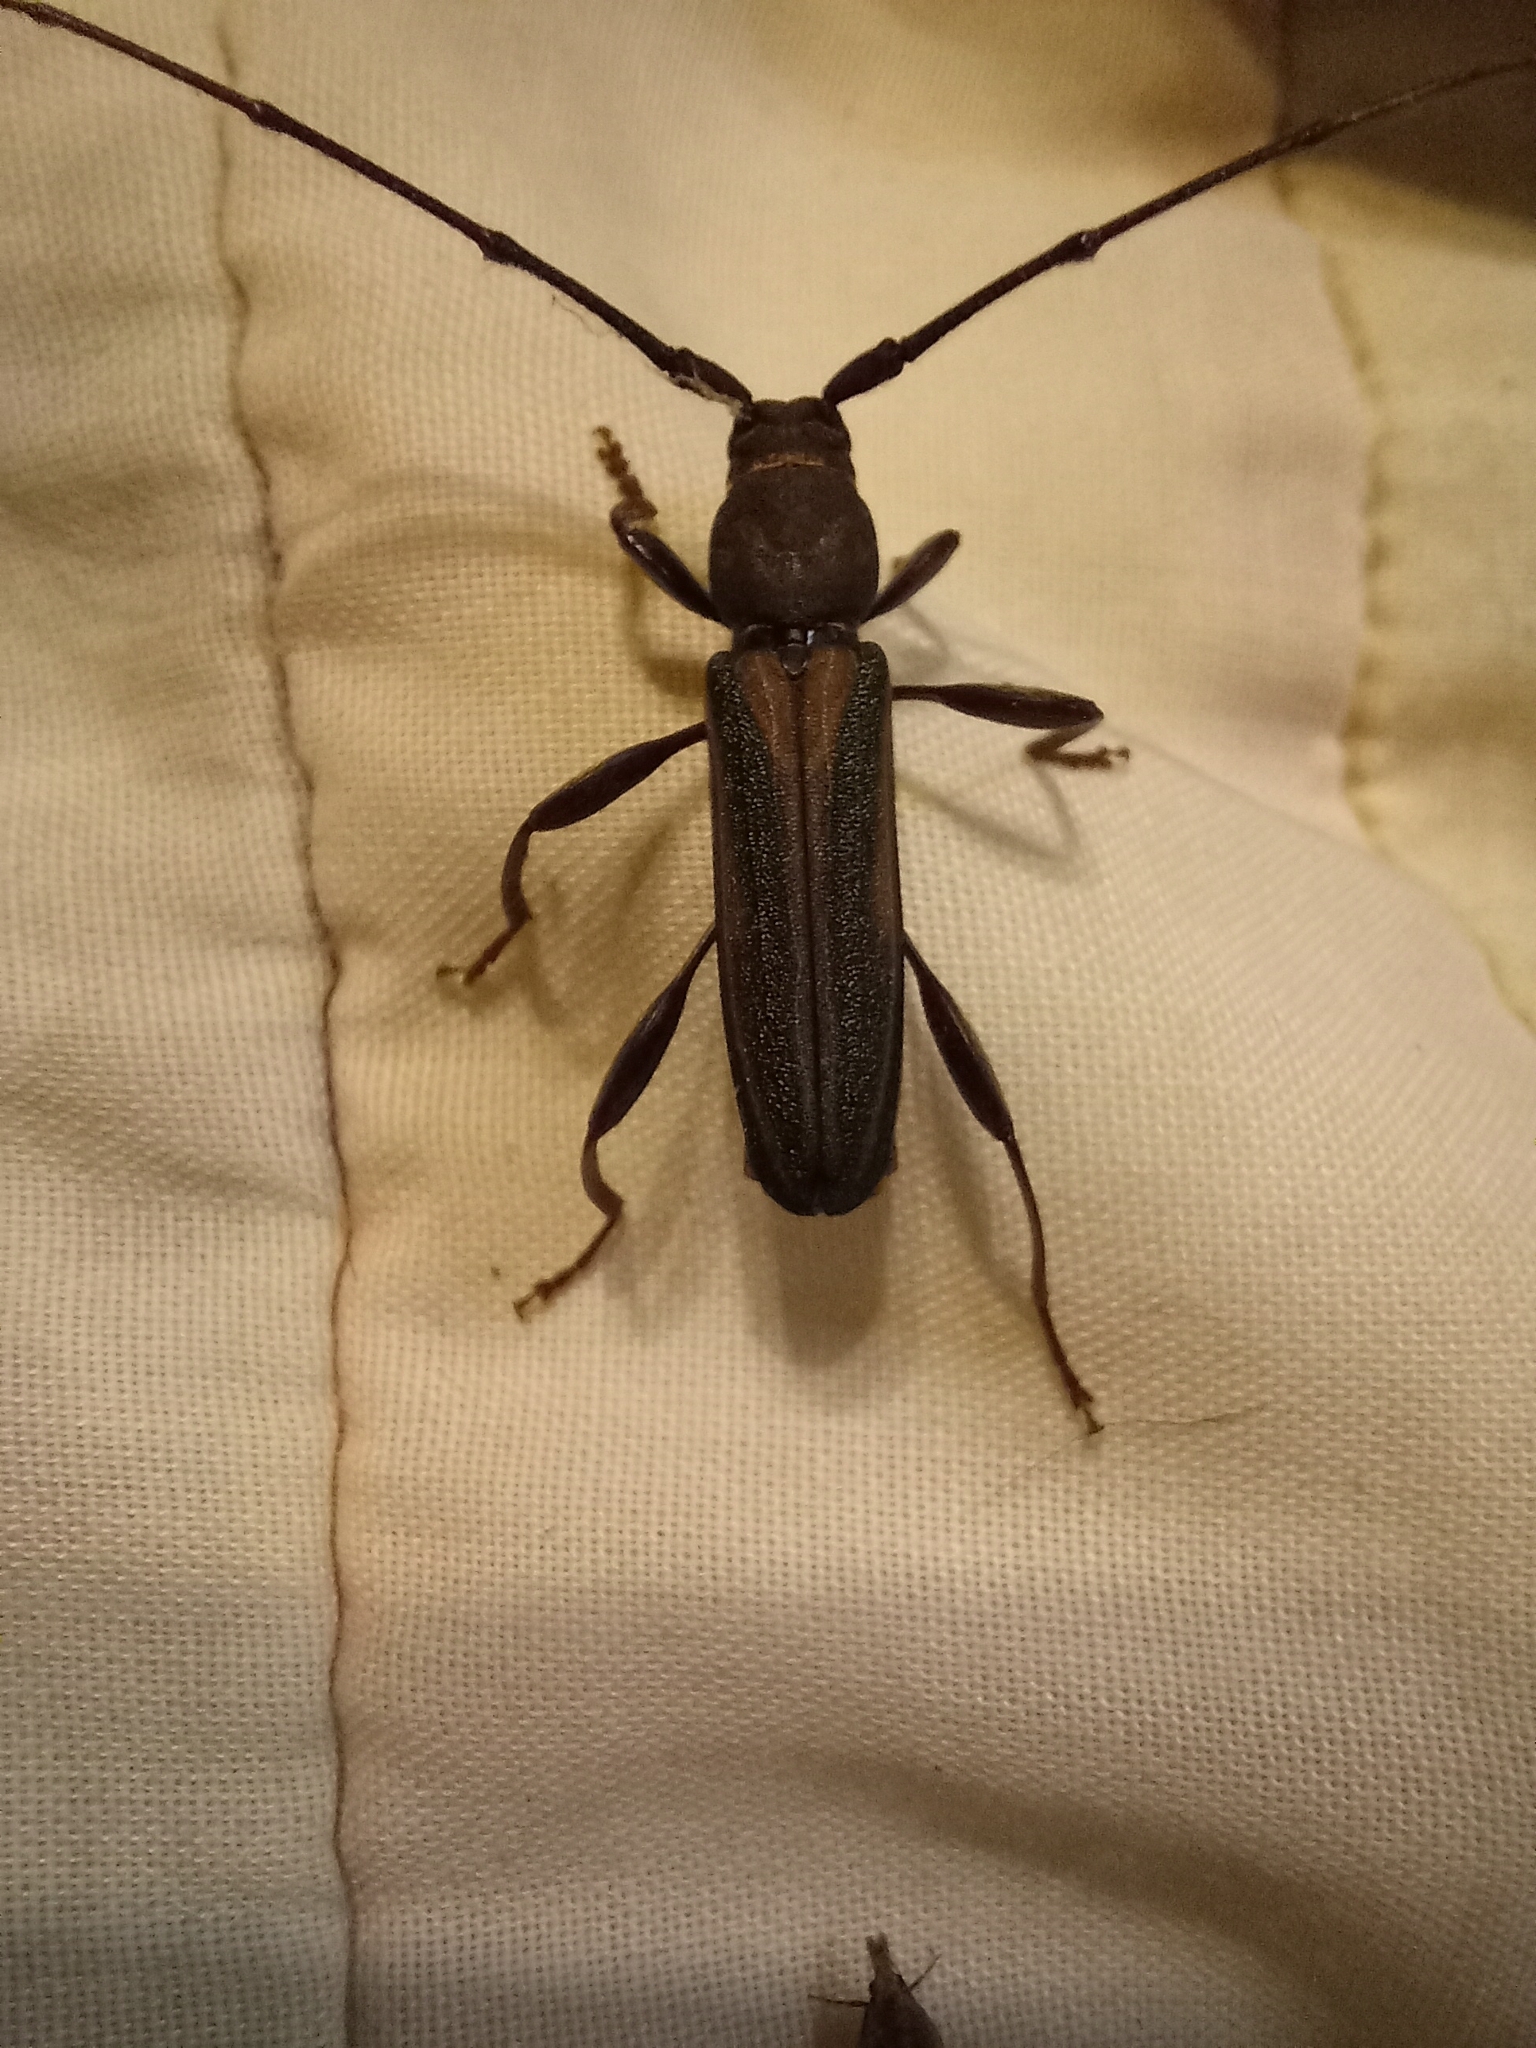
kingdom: Animalia
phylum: Arthropoda
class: Insecta
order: Coleoptera
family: Cerambycidae
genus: Xystrocera
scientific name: Xystrocera dispar
